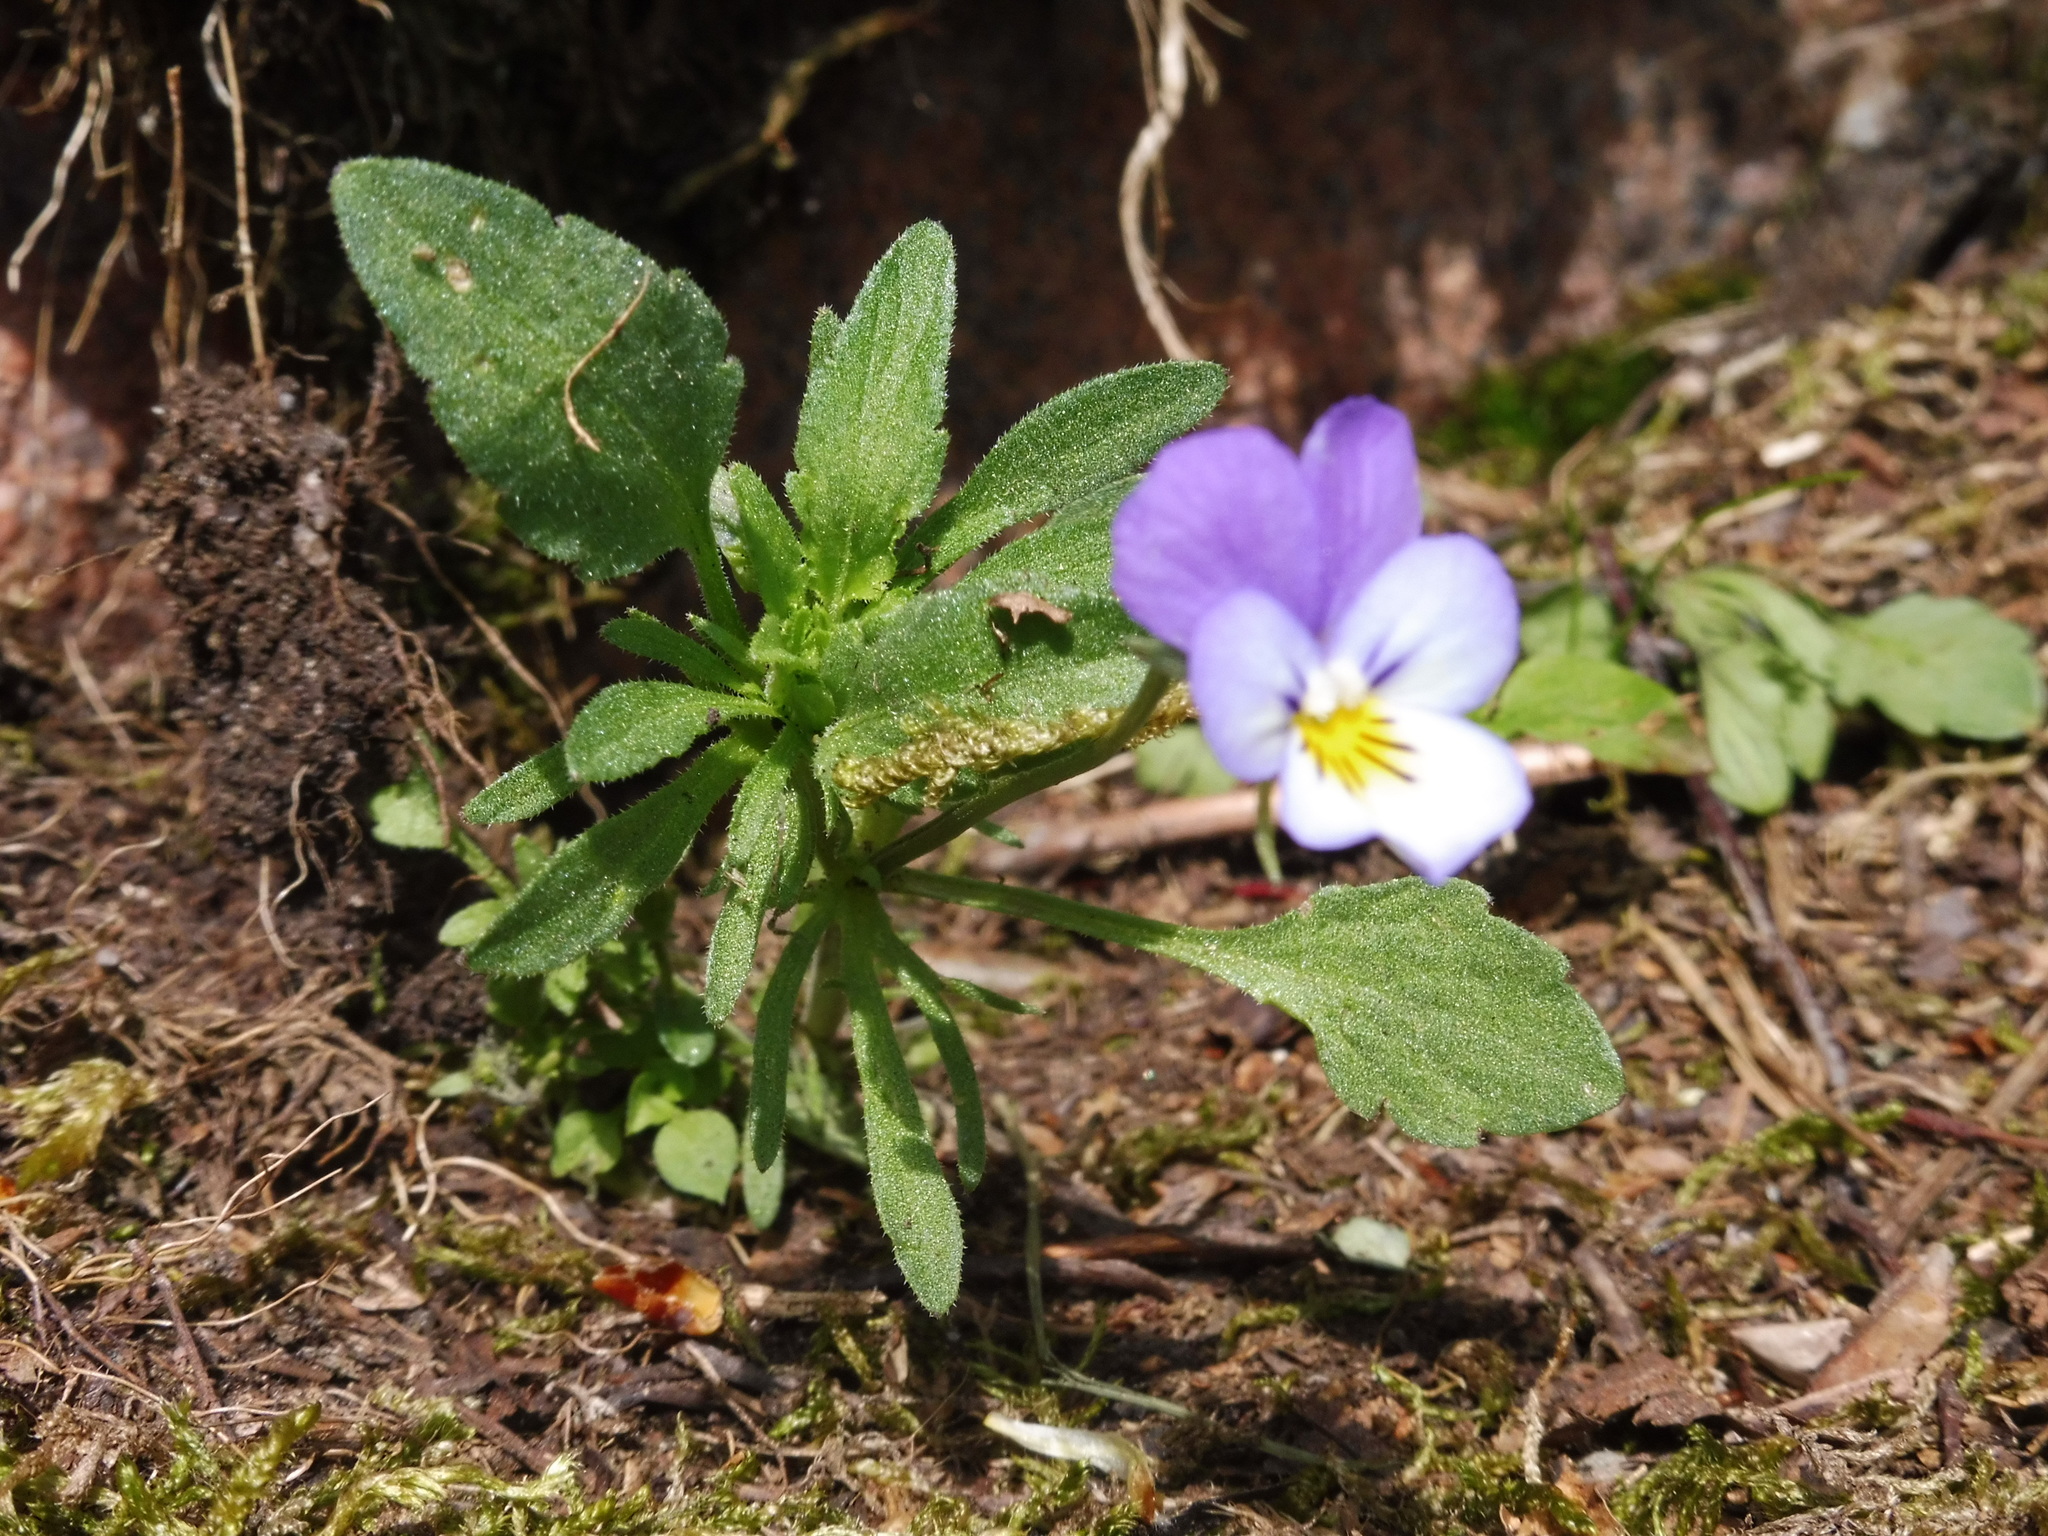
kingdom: Plantae
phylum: Tracheophyta
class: Magnoliopsida
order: Malpighiales
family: Violaceae
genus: Viola
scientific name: Viola tricolor
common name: Pansy
